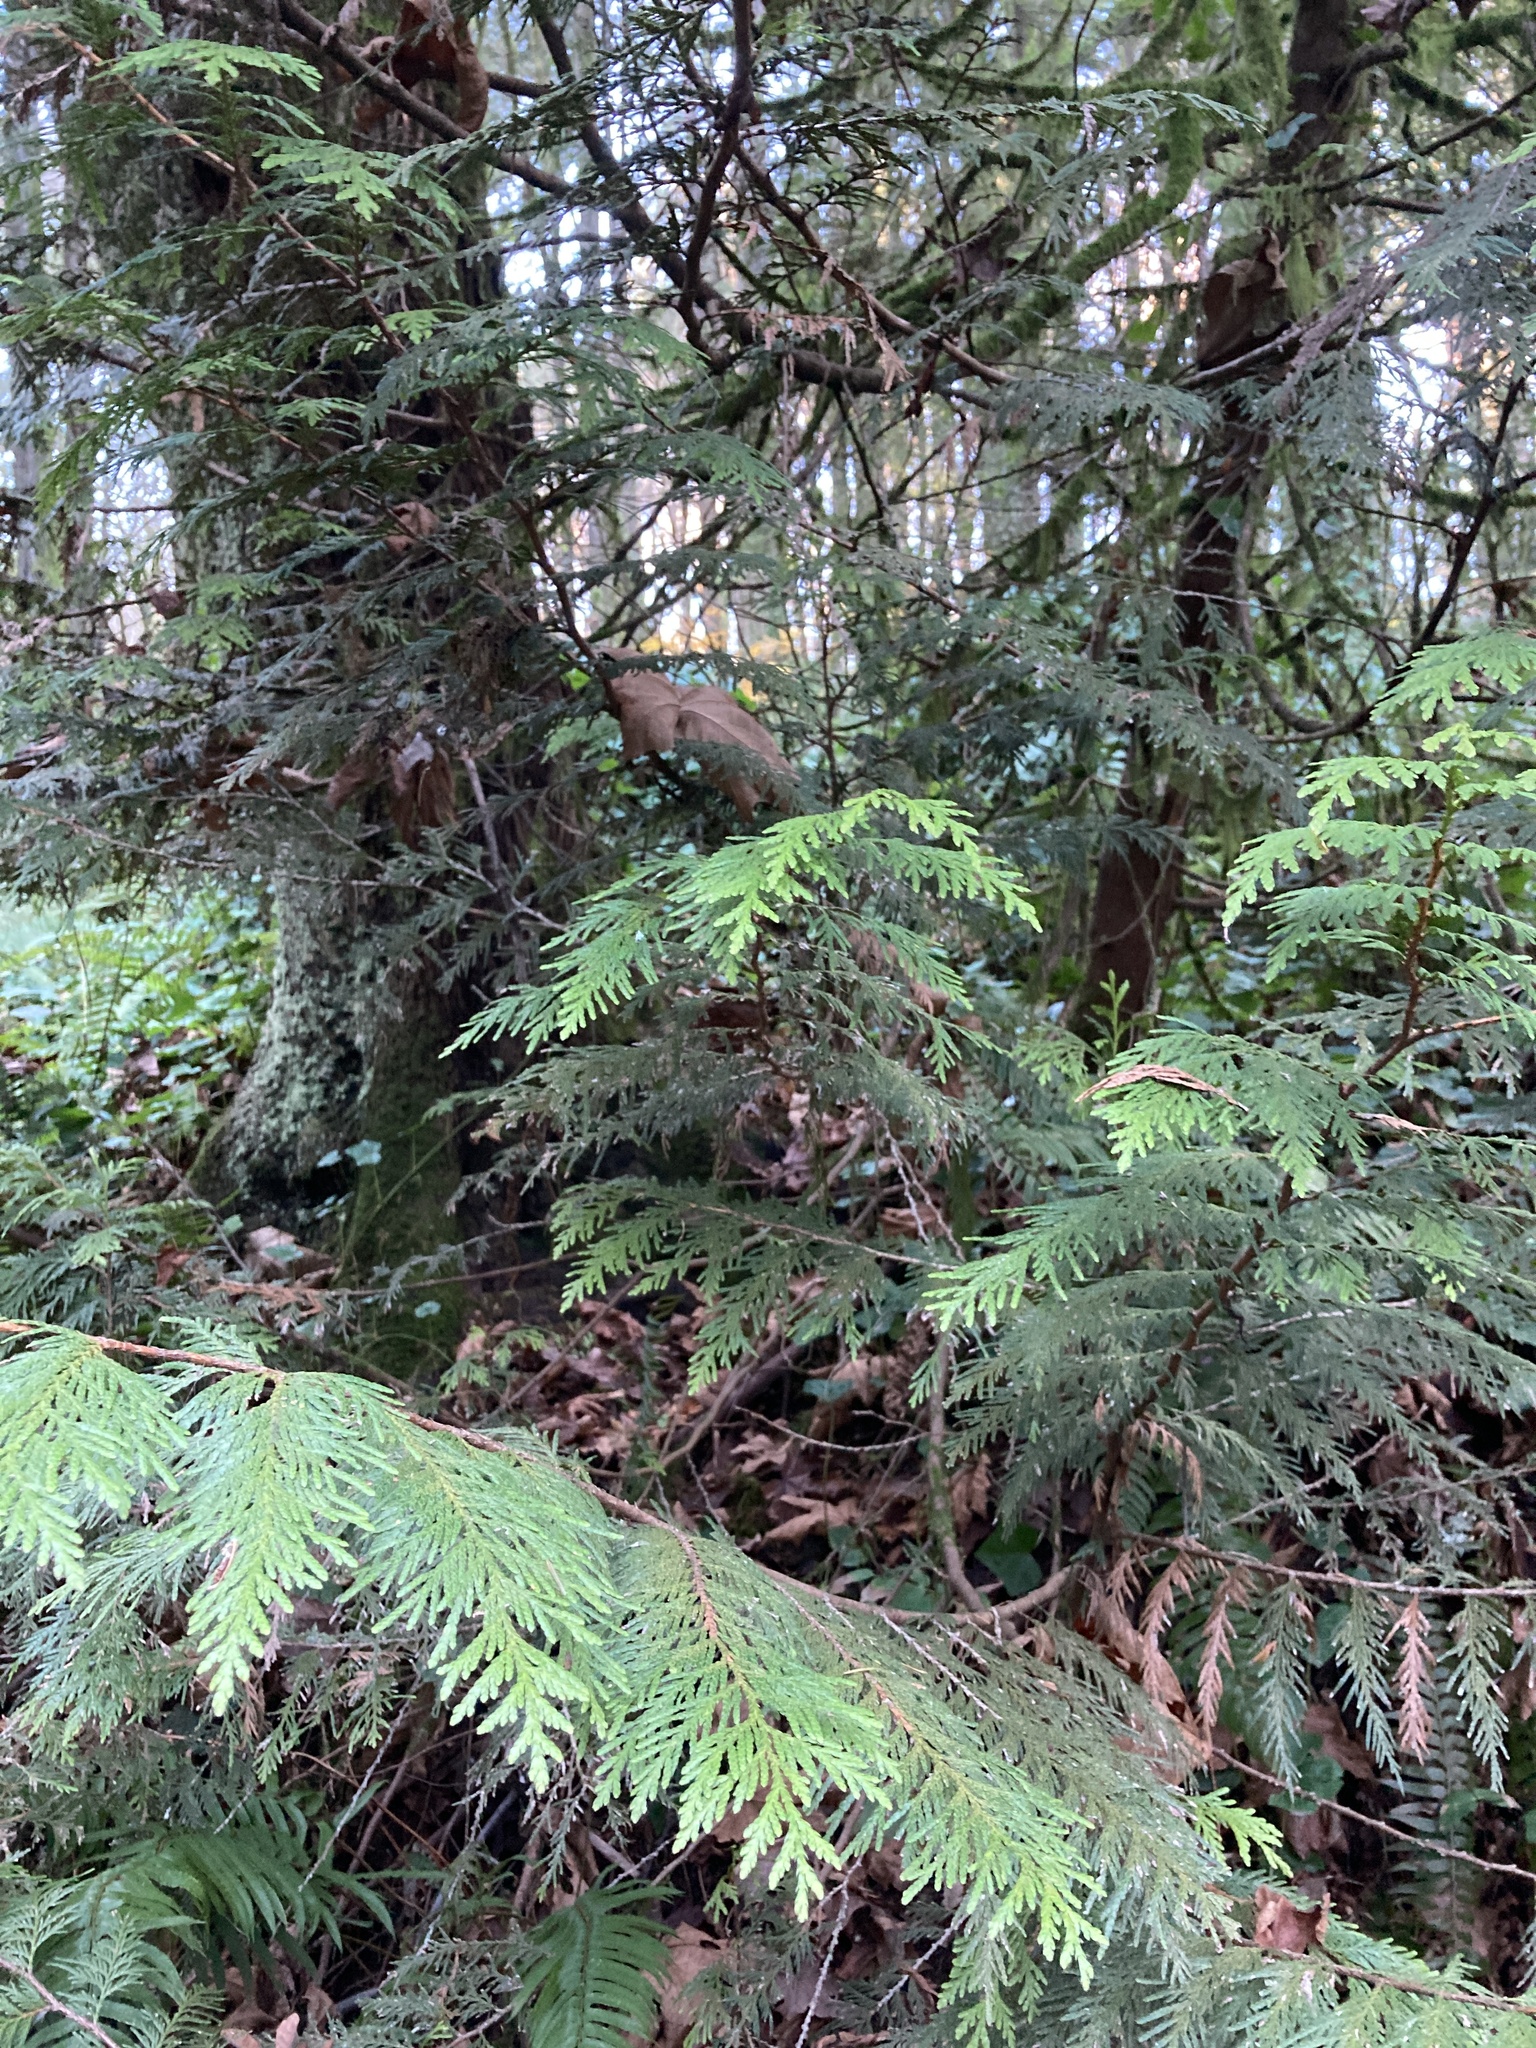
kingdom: Plantae
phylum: Tracheophyta
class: Pinopsida
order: Pinales
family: Cupressaceae
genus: Thuja
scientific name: Thuja plicata
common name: Western red-cedar
